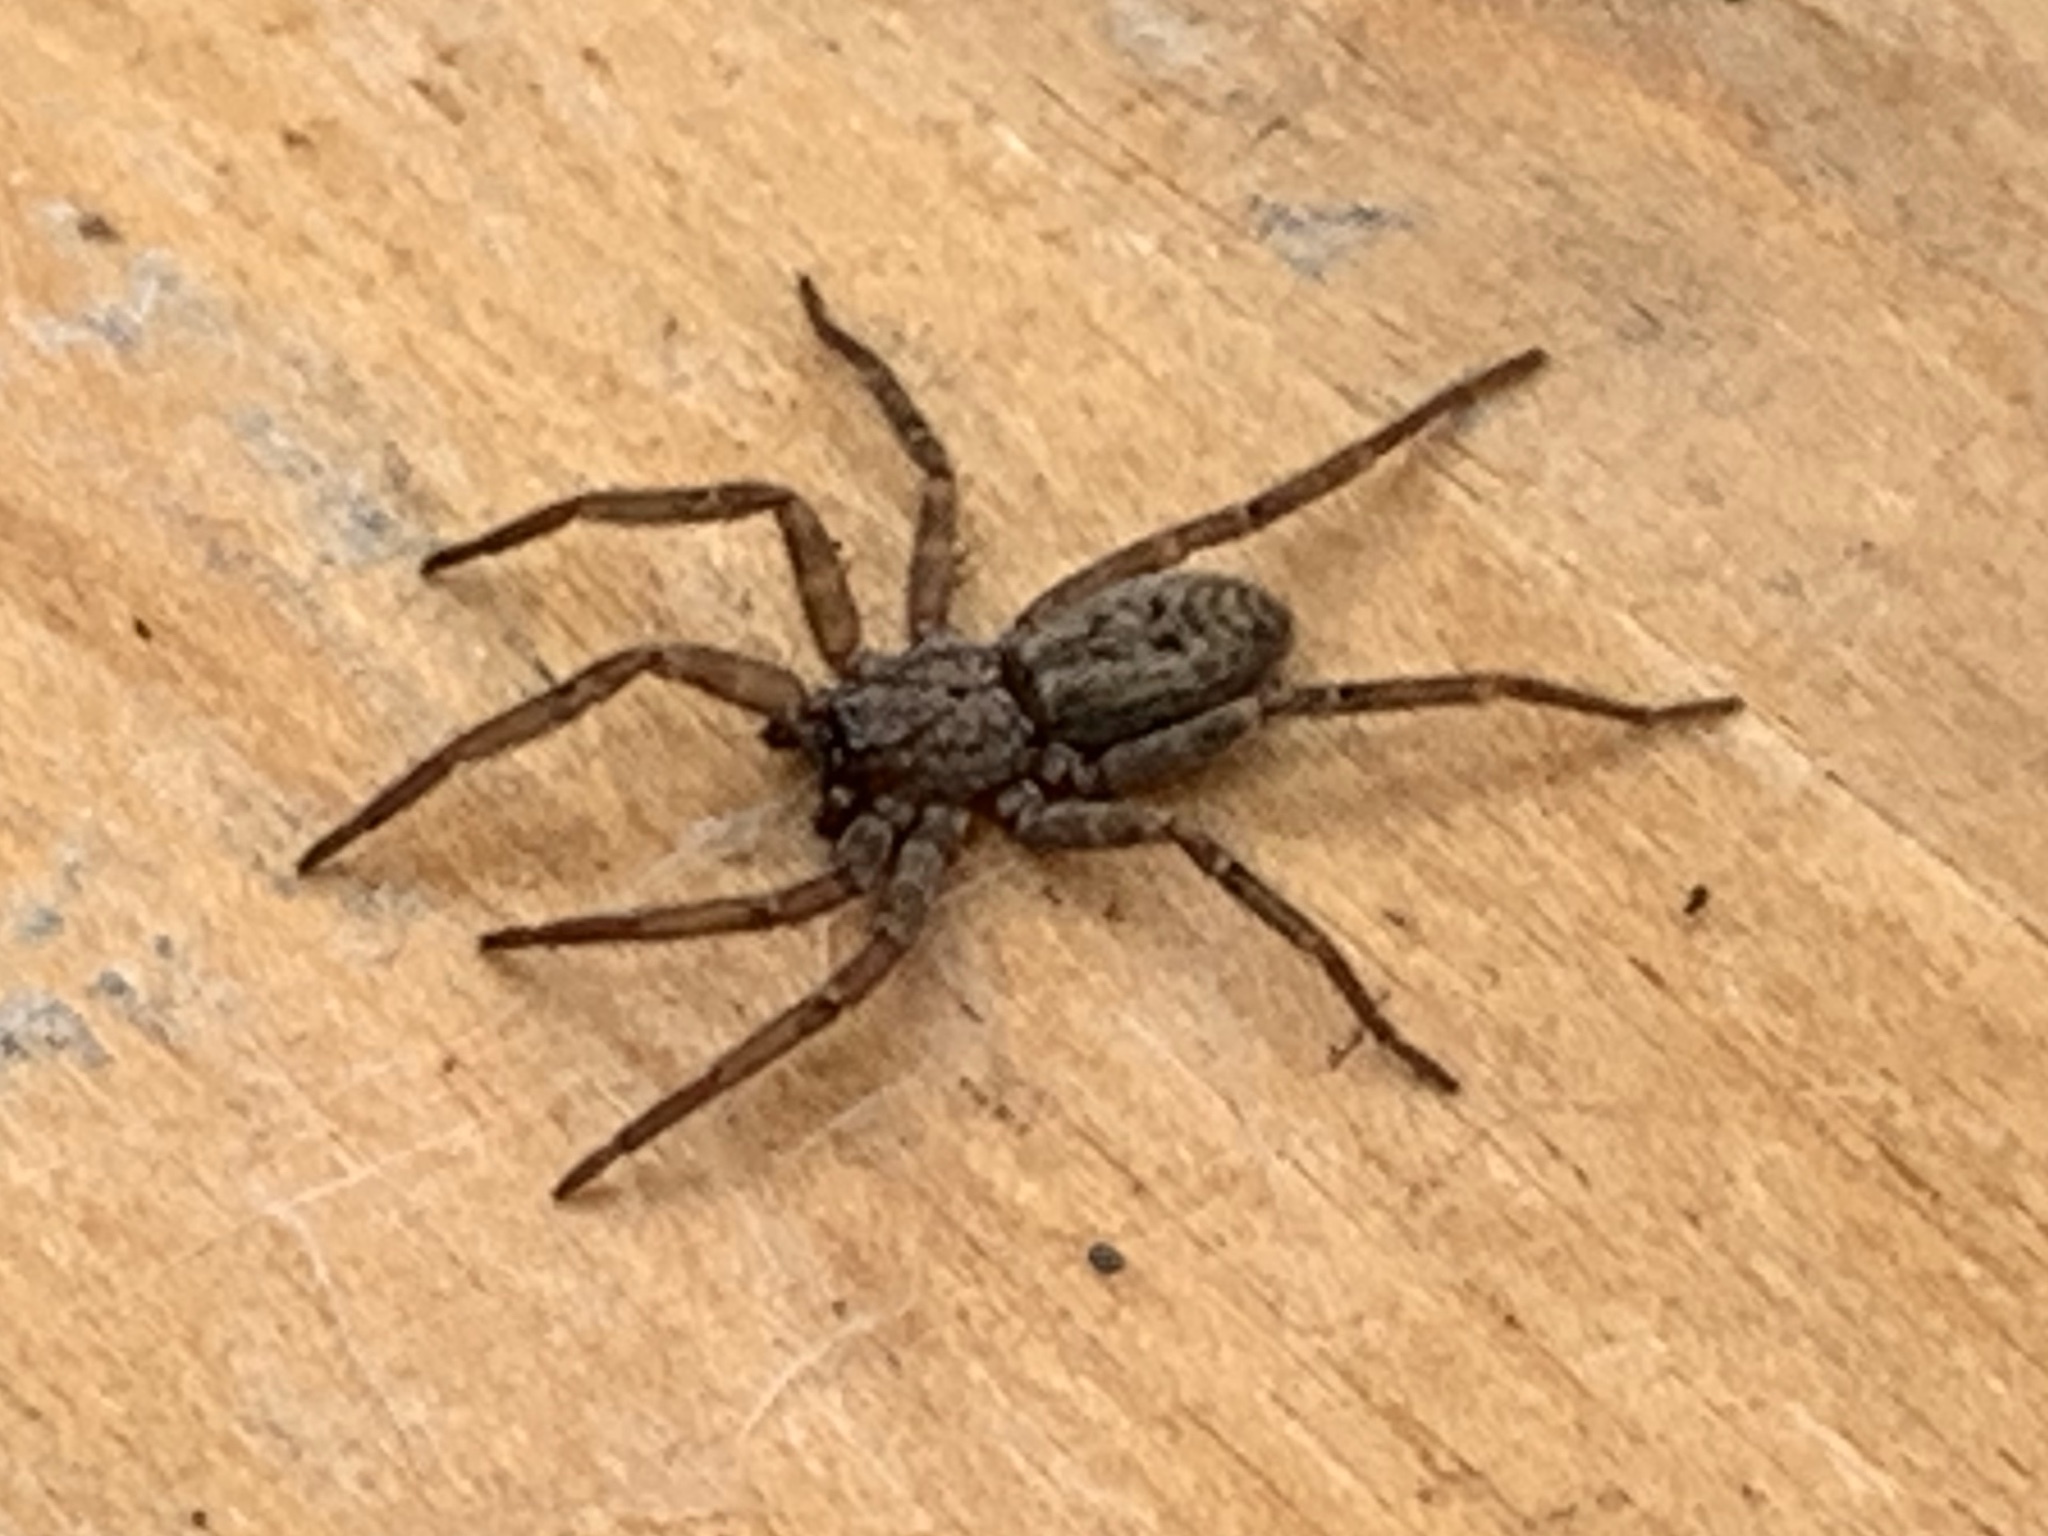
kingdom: Animalia
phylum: Arthropoda
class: Arachnida
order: Araneae
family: Zoropsidae
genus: Lauricius
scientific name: Lauricius hooki
